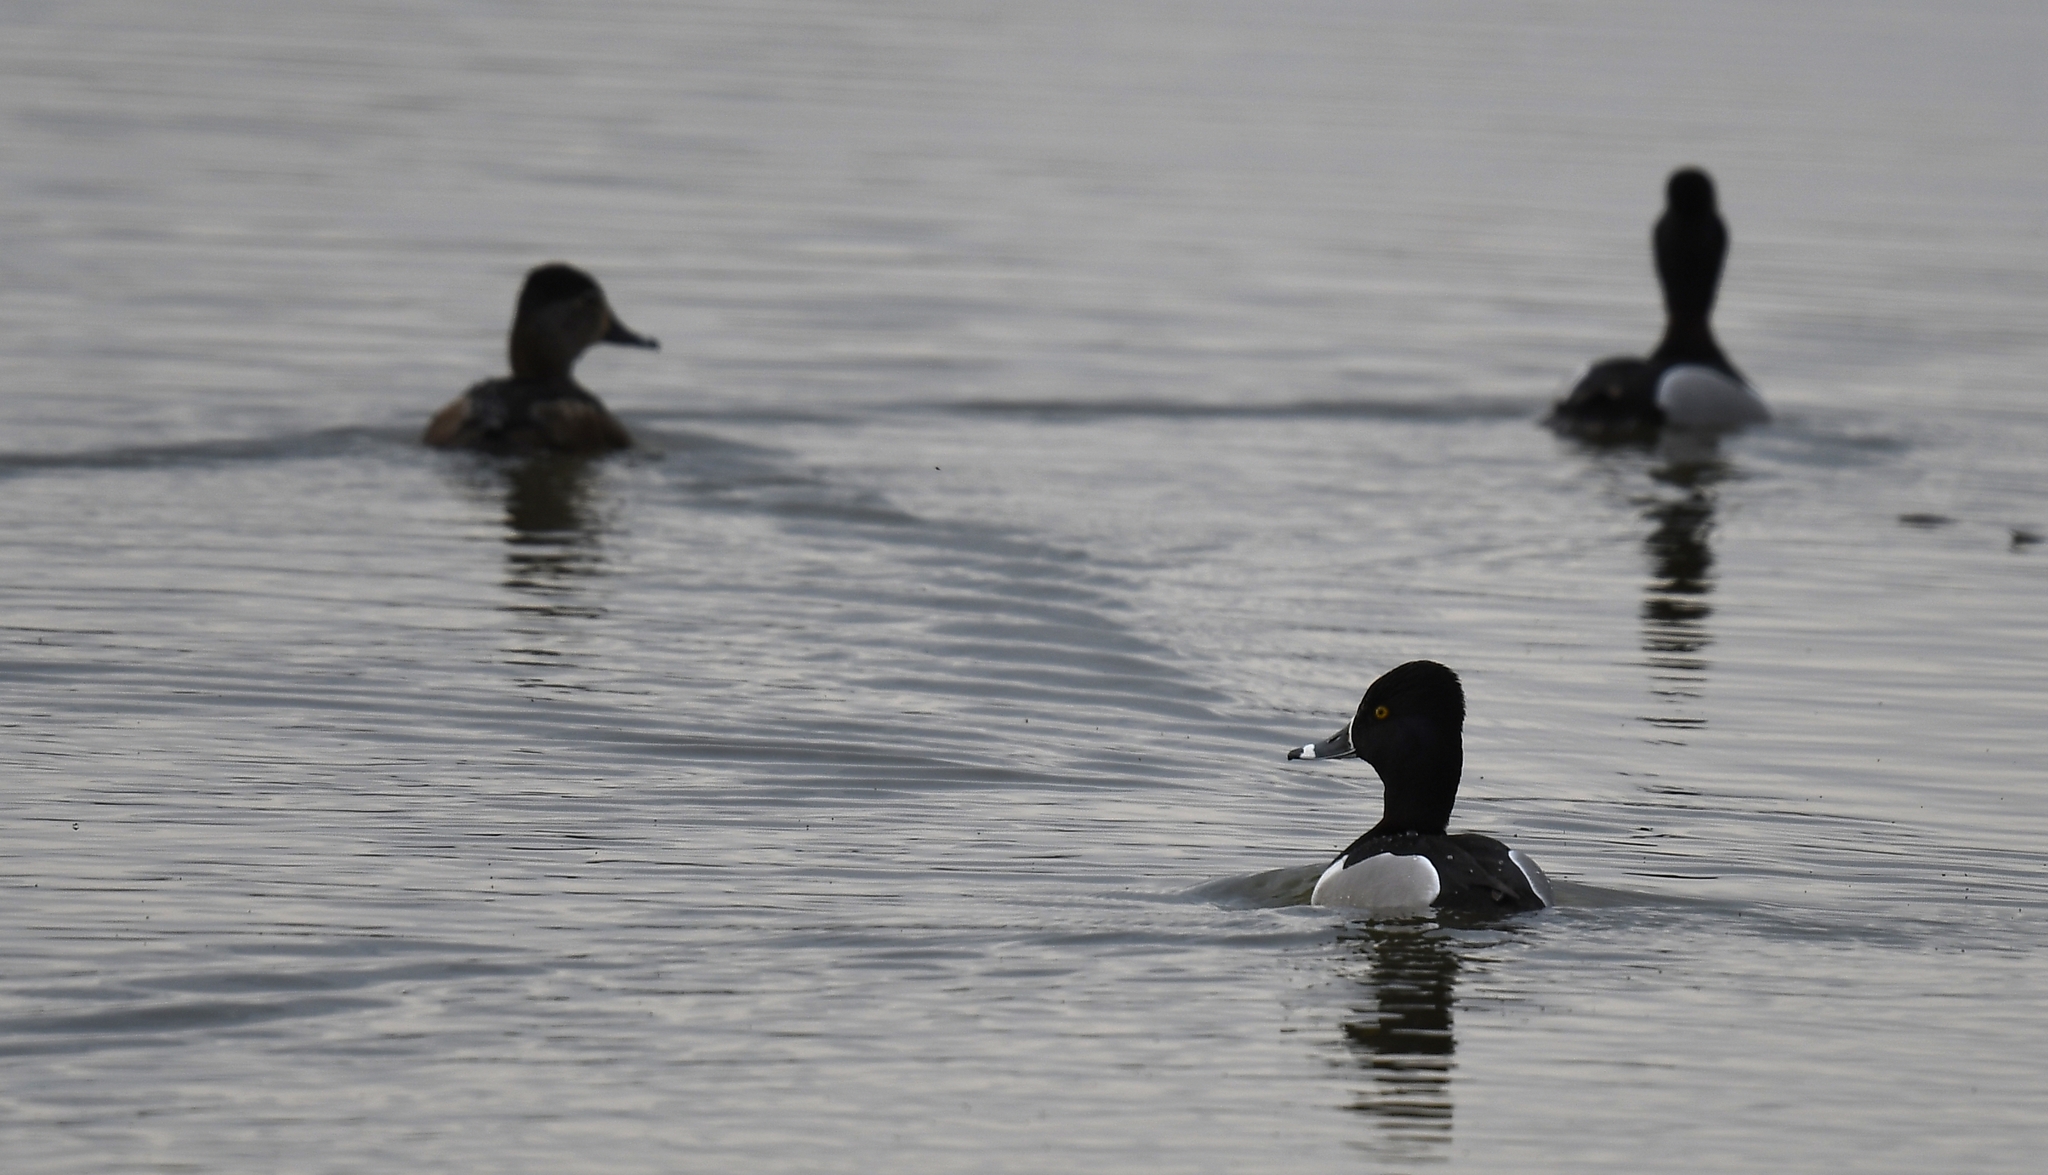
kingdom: Animalia
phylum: Chordata
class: Aves
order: Anseriformes
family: Anatidae
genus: Aythya
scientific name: Aythya collaris
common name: Ring-necked duck
